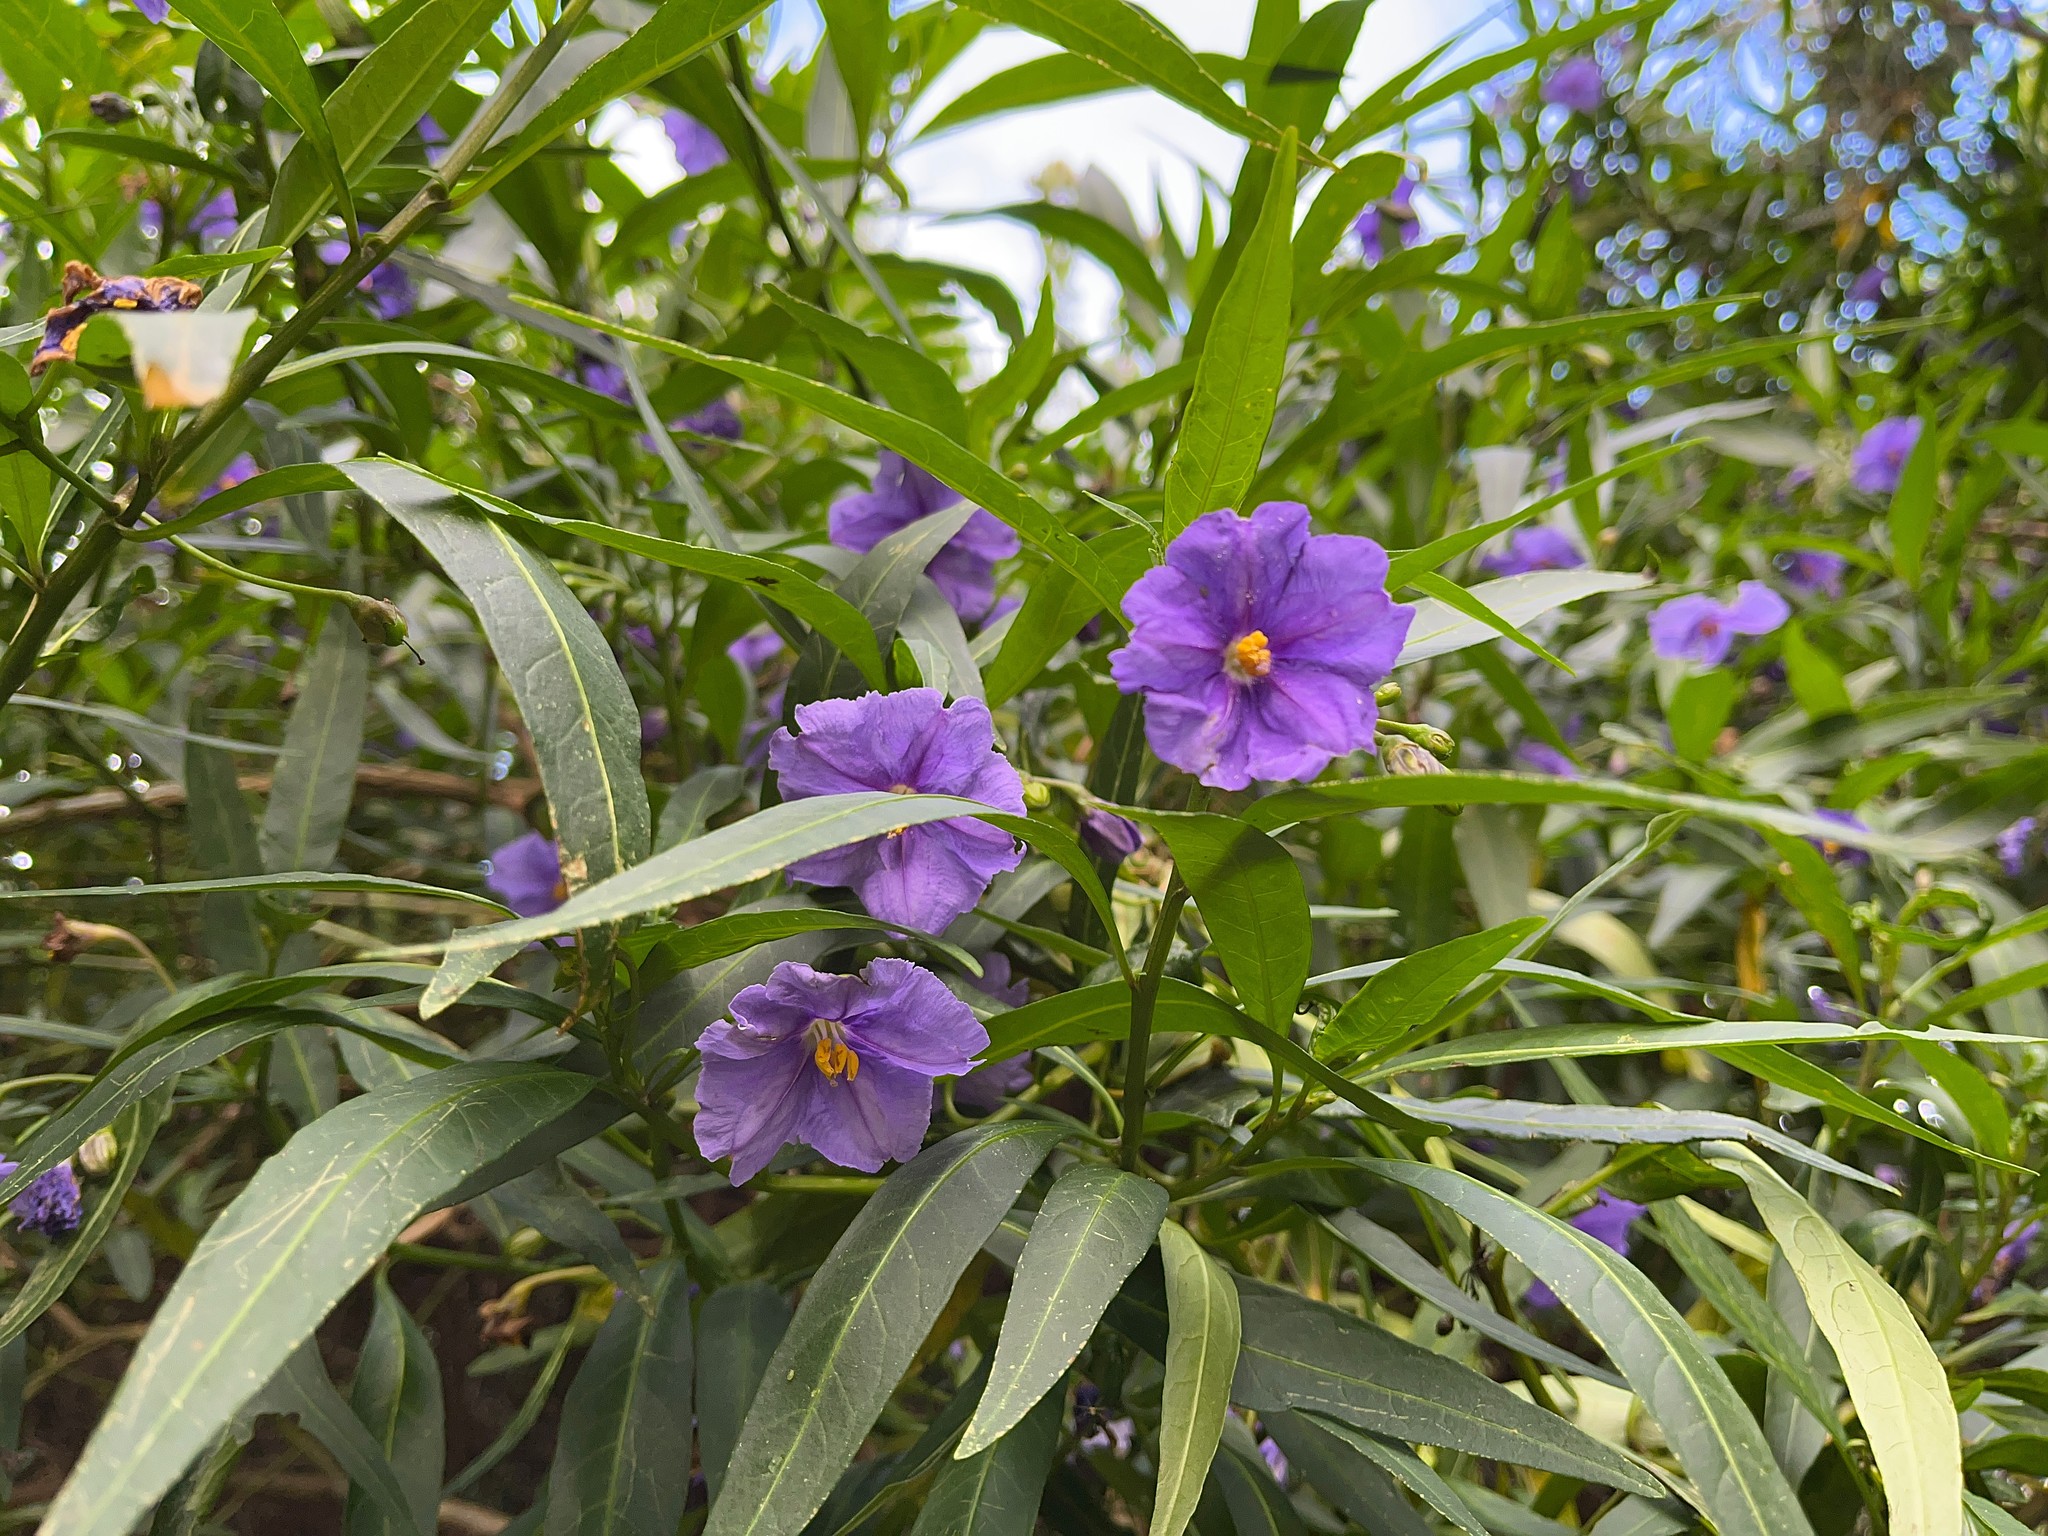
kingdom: Plantae
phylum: Tracheophyta
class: Magnoliopsida
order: Solanales
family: Solanaceae
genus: Solanum
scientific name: Solanum laciniatum
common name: Kangaroo-apple
